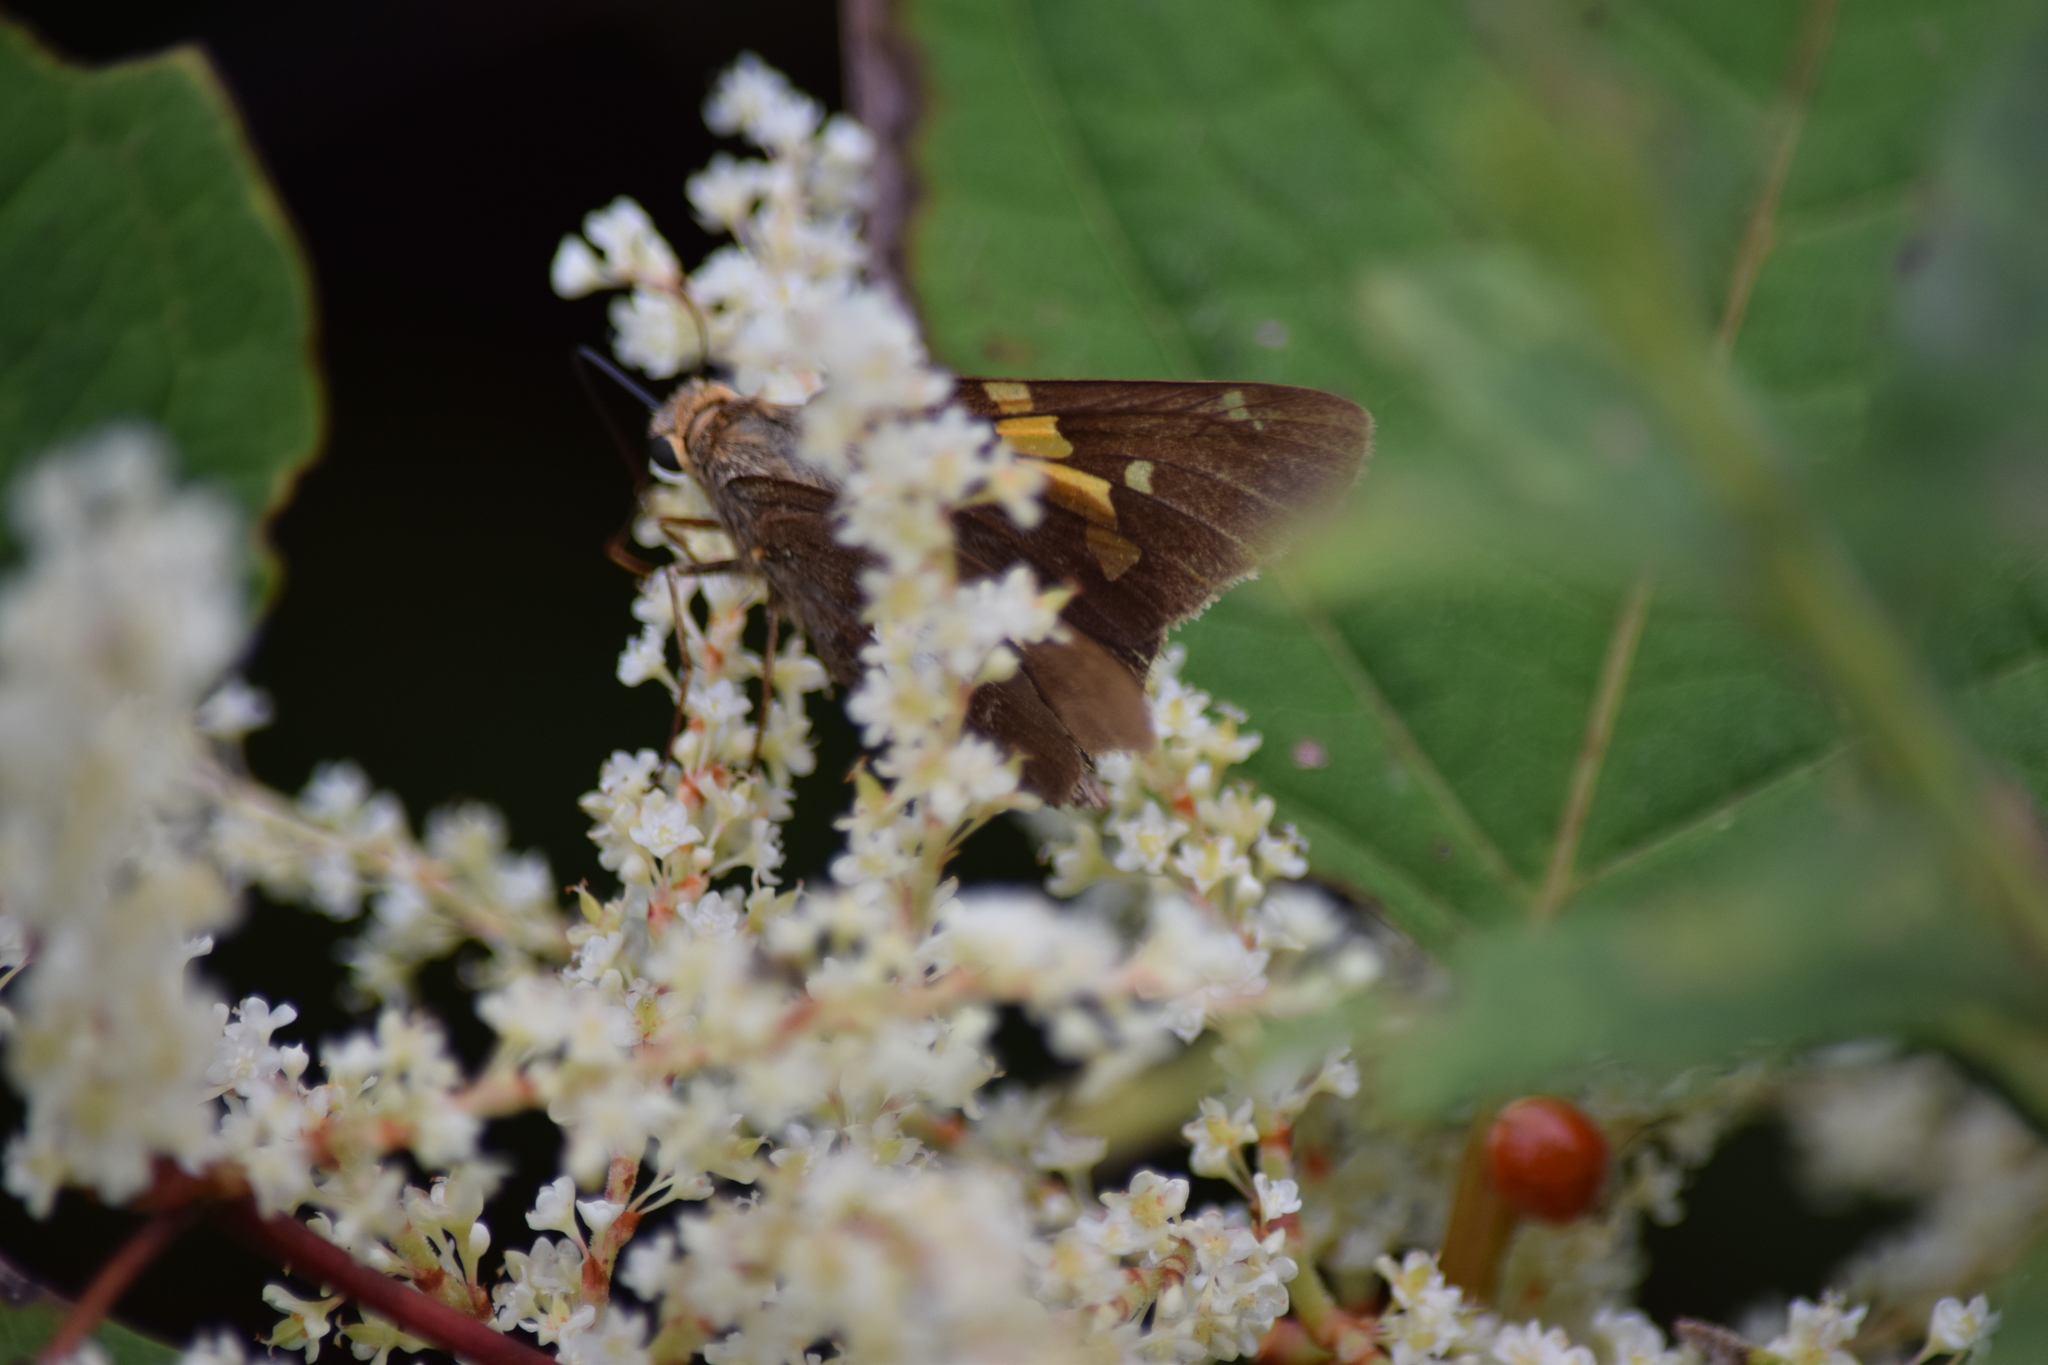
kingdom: Animalia
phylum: Arthropoda
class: Insecta
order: Lepidoptera
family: Hesperiidae
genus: Epargyreus
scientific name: Epargyreus clarus
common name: Silver-spotted skipper
